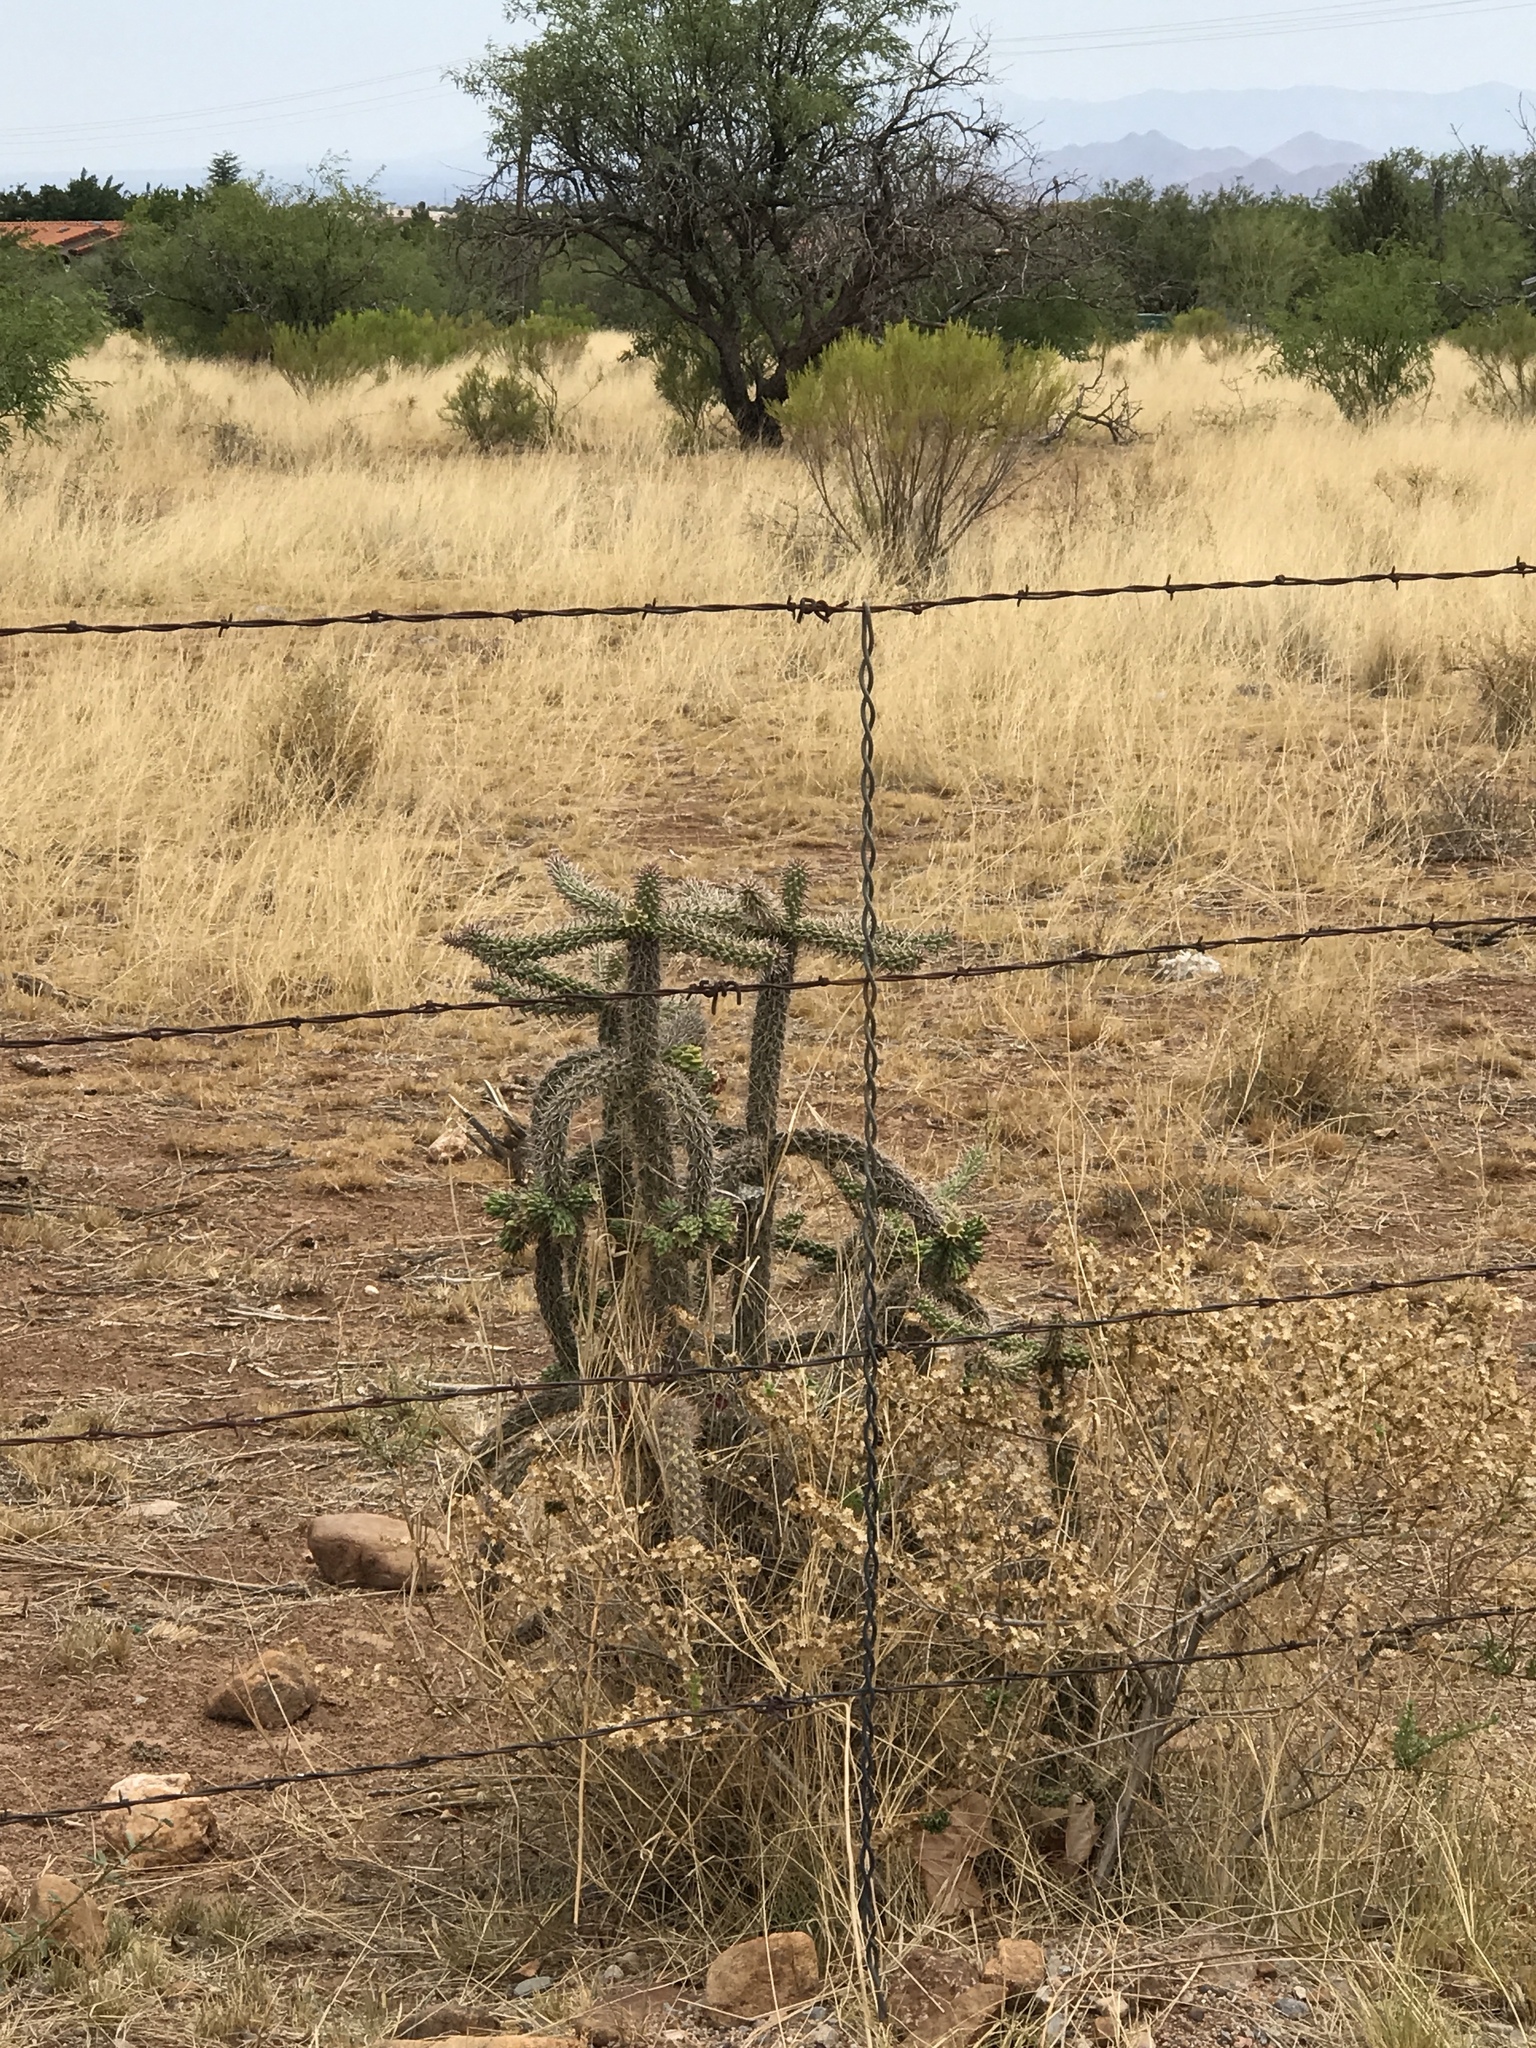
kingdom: Plantae
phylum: Tracheophyta
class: Magnoliopsida
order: Caryophyllales
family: Cactaceae
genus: Cylindropuntia
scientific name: Cylindropuntia imbricata
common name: Candelabrum cactus
